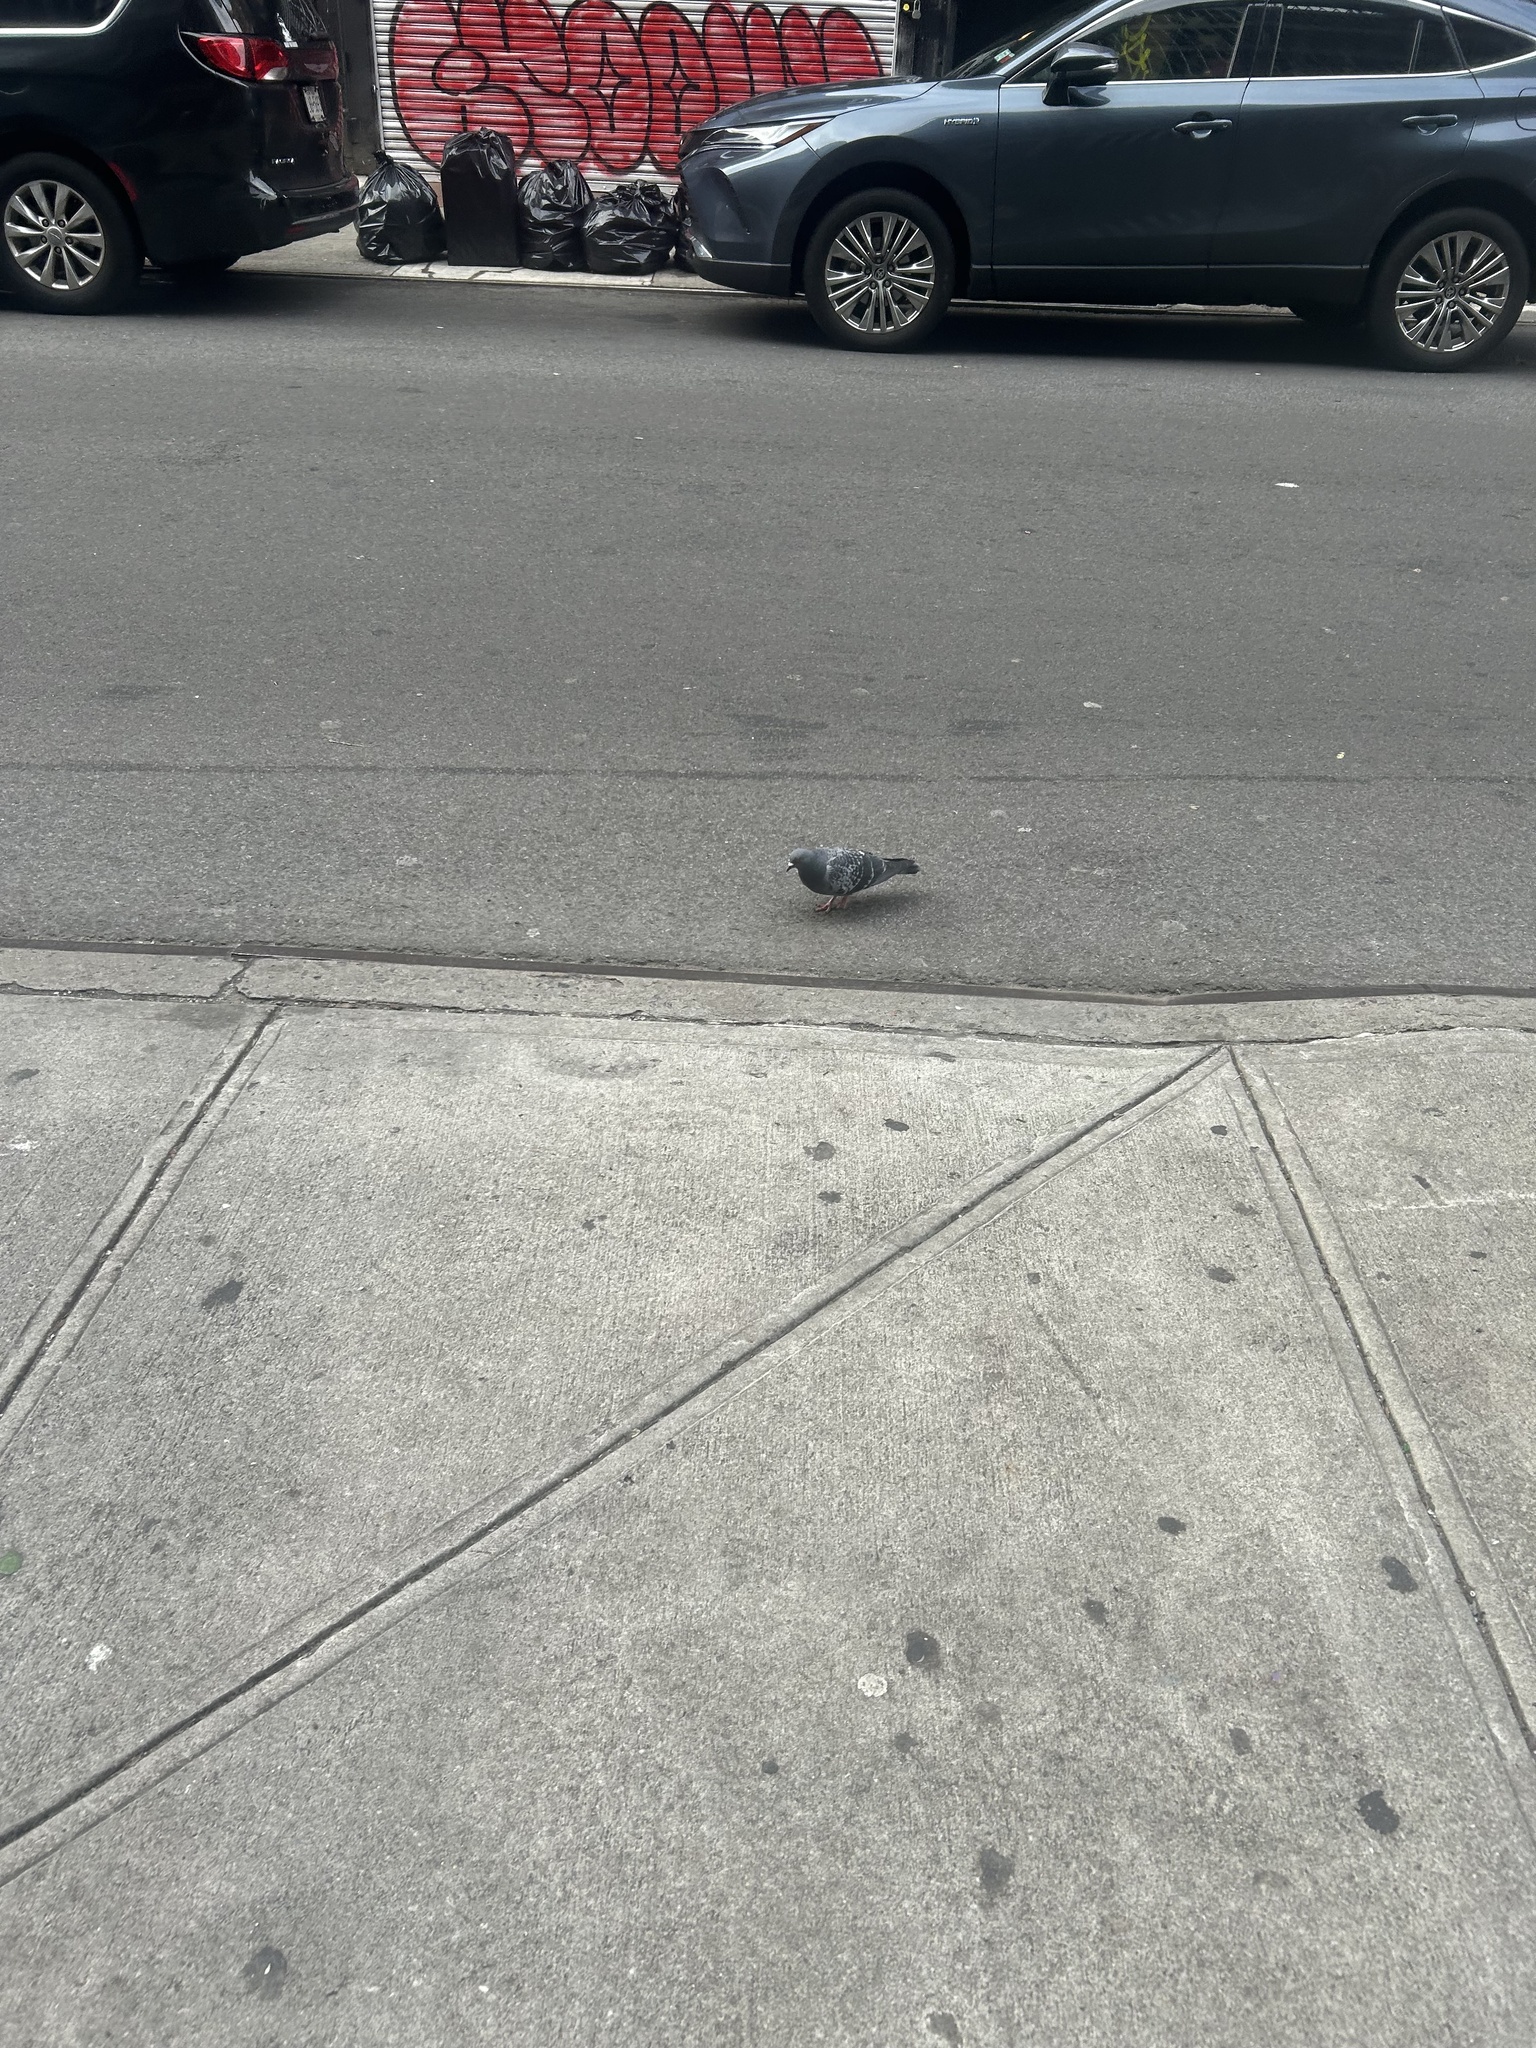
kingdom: Animalia
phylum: Chordata
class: Aves
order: Columbiformes
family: Columbidae
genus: Columba
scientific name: Columba livia
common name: Rock pigeon
